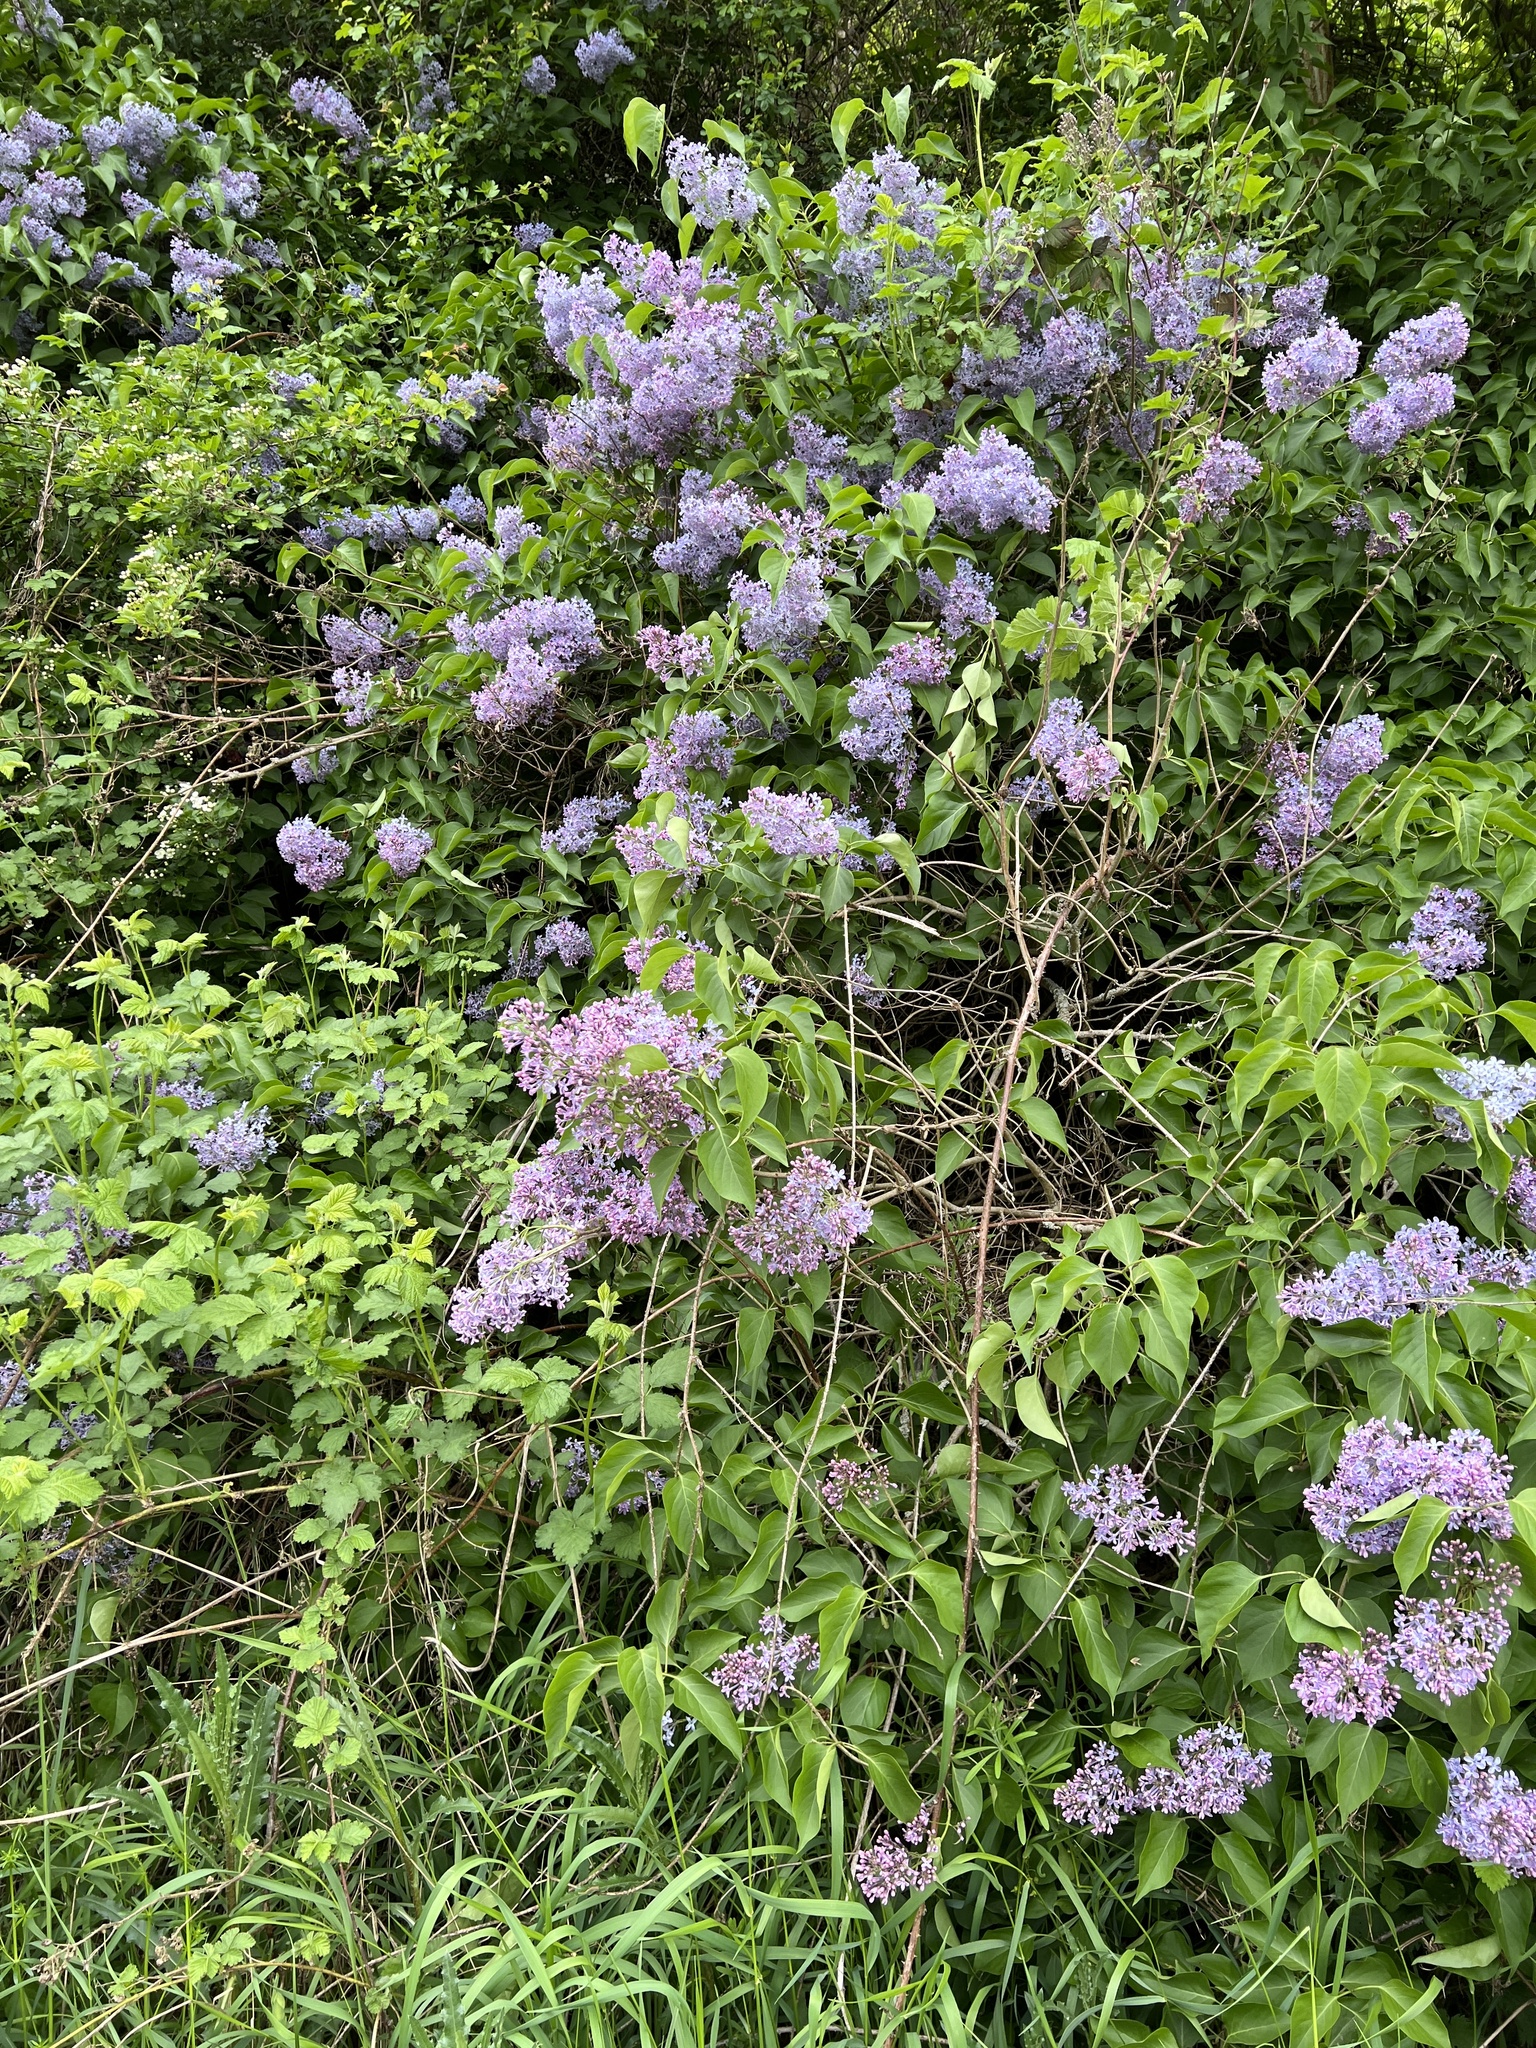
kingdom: Plantae
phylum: Tracheophyta
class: Magnoliopsida
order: Lamiales
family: Oleaceae
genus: Syringa
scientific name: Syringa vulgaris
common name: Common lilac
